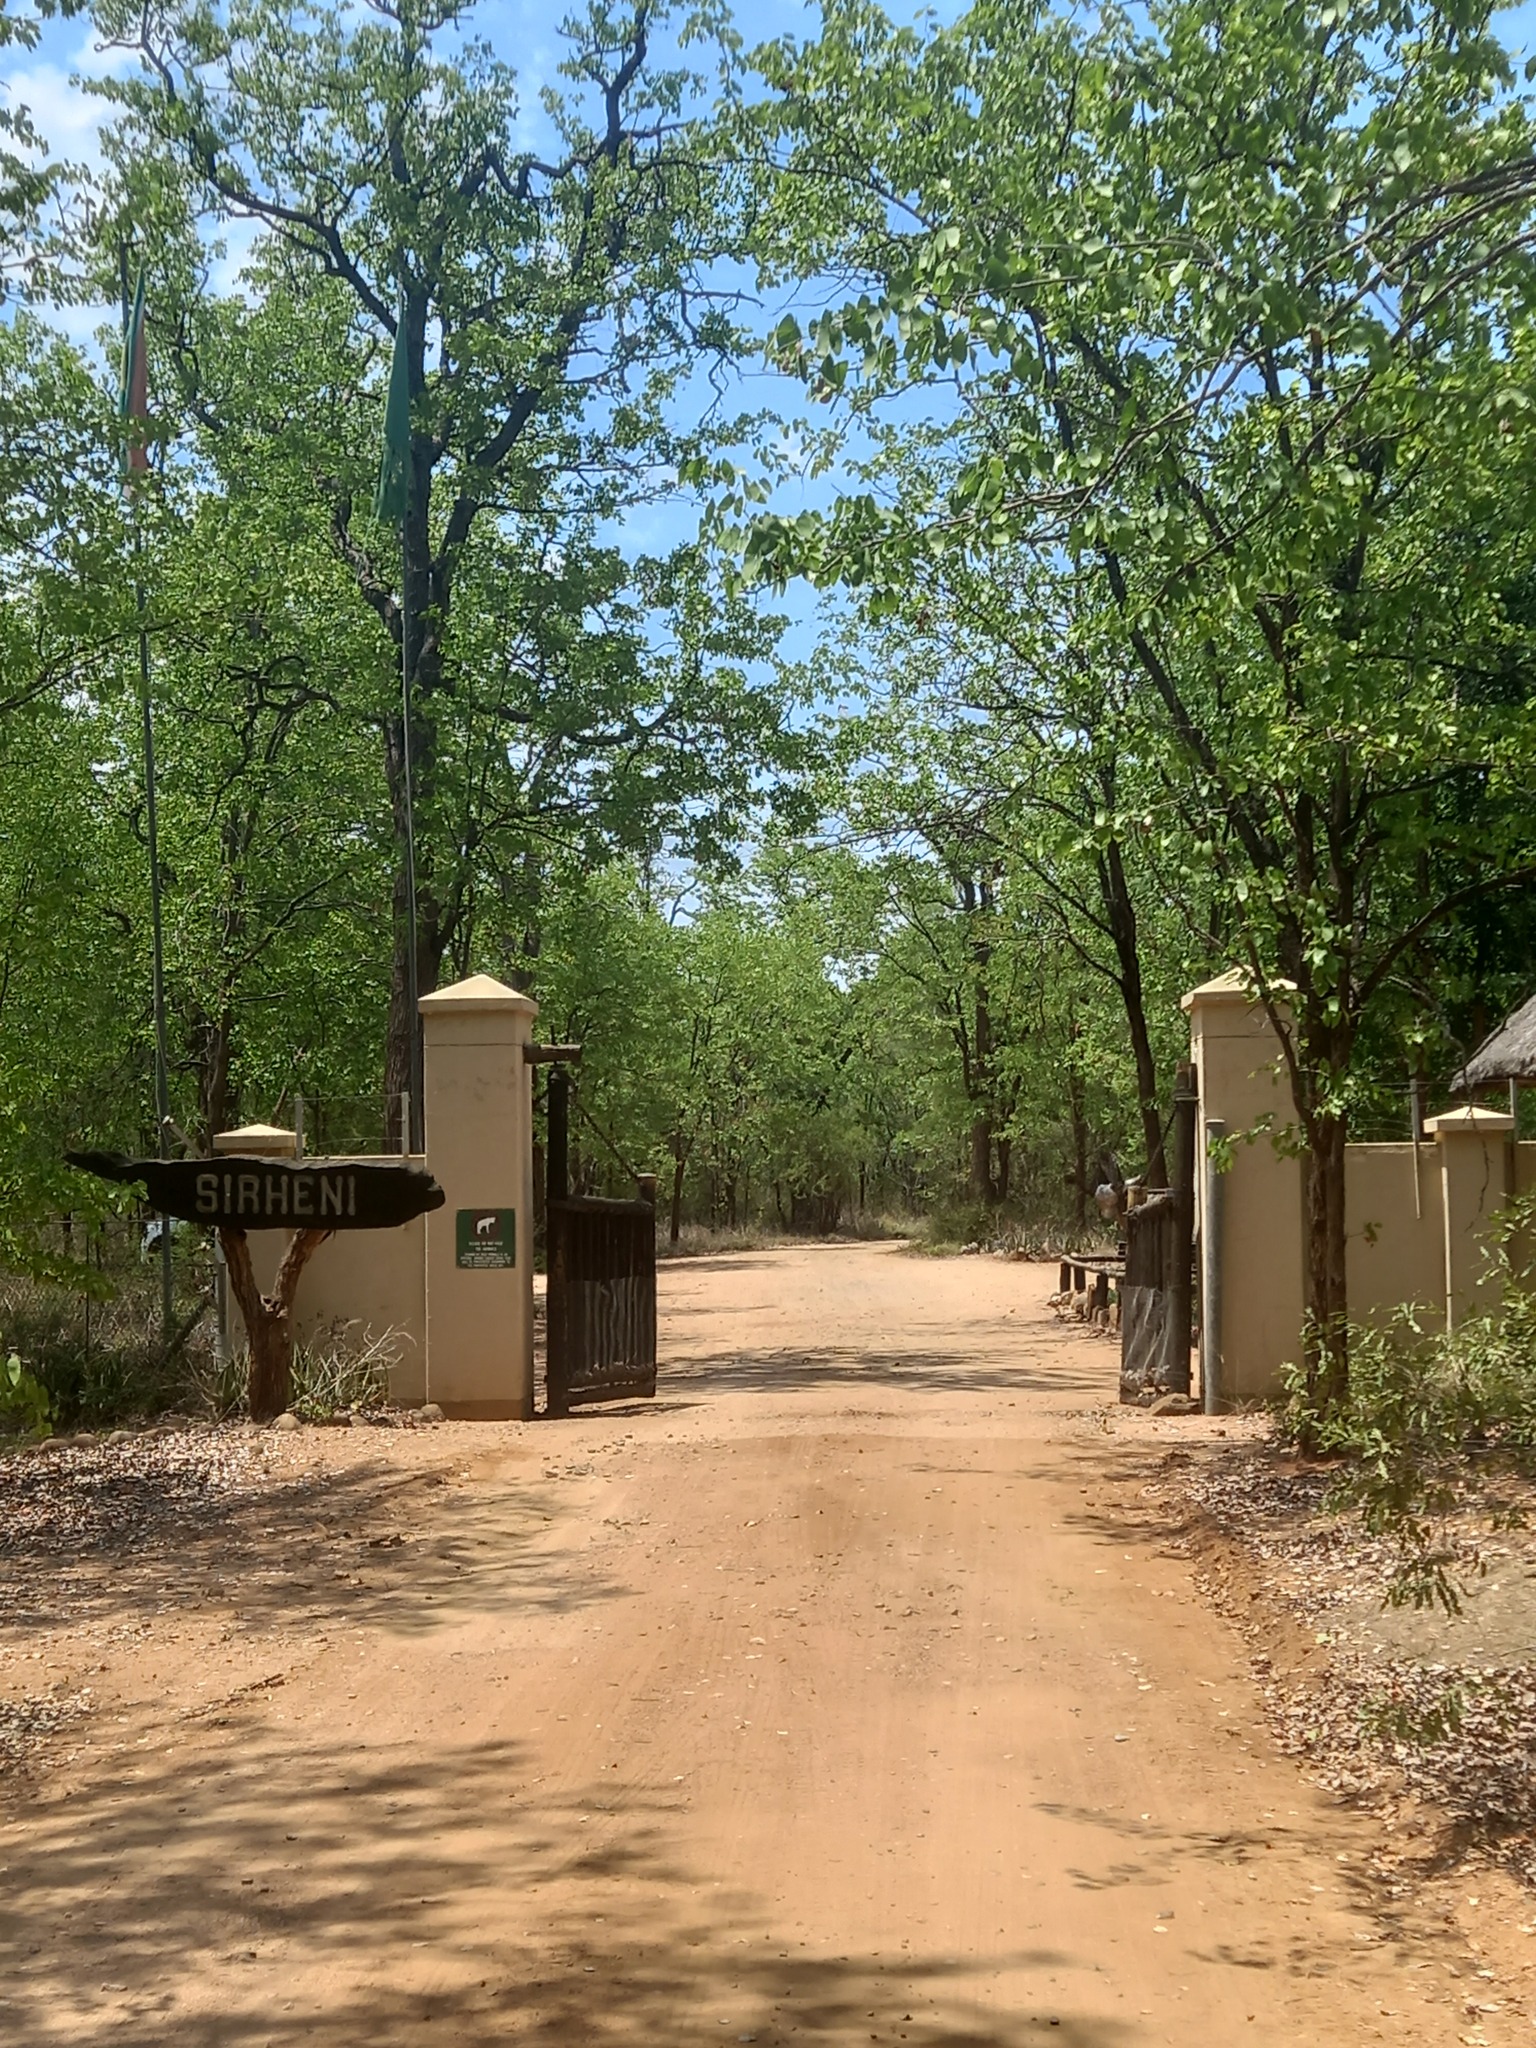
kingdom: Plantae
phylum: Tracheophyta
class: Magnoliopsida
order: Fabales
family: Fabaceae
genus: Colophospermum
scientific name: Colophospermum mopane
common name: Mopane
